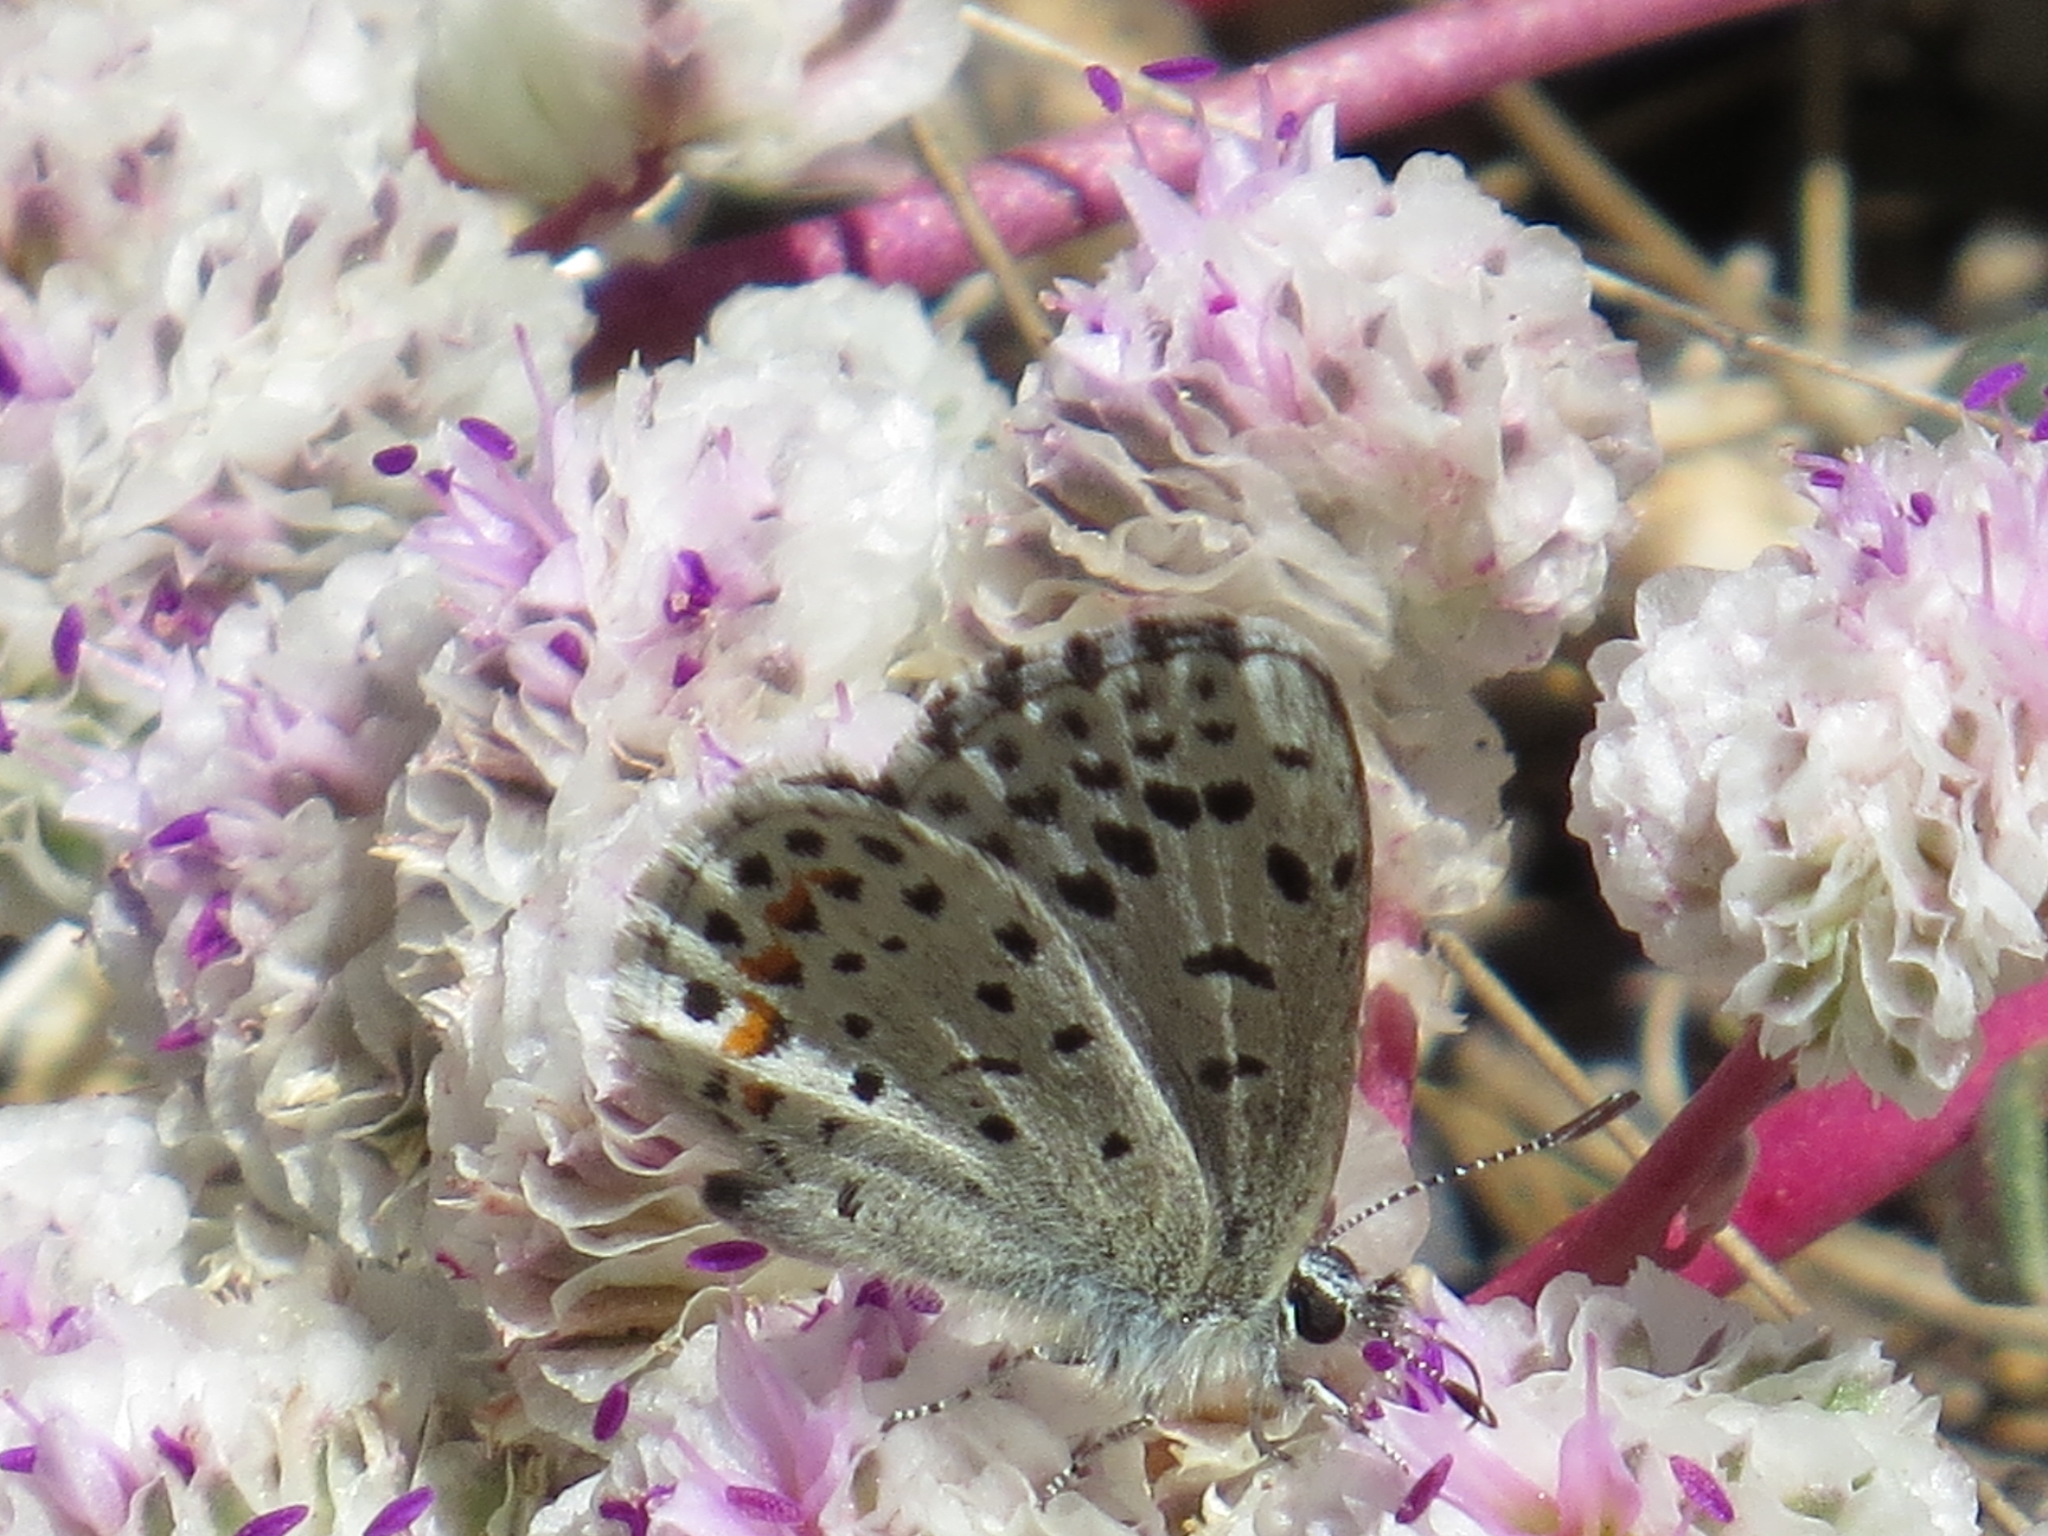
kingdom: Animalia
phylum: Arthropoda
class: Insecta
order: Lepidoptera
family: Lycaenidae
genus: Euphilotes
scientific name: Euphilotes enoptes
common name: Dotted blue
